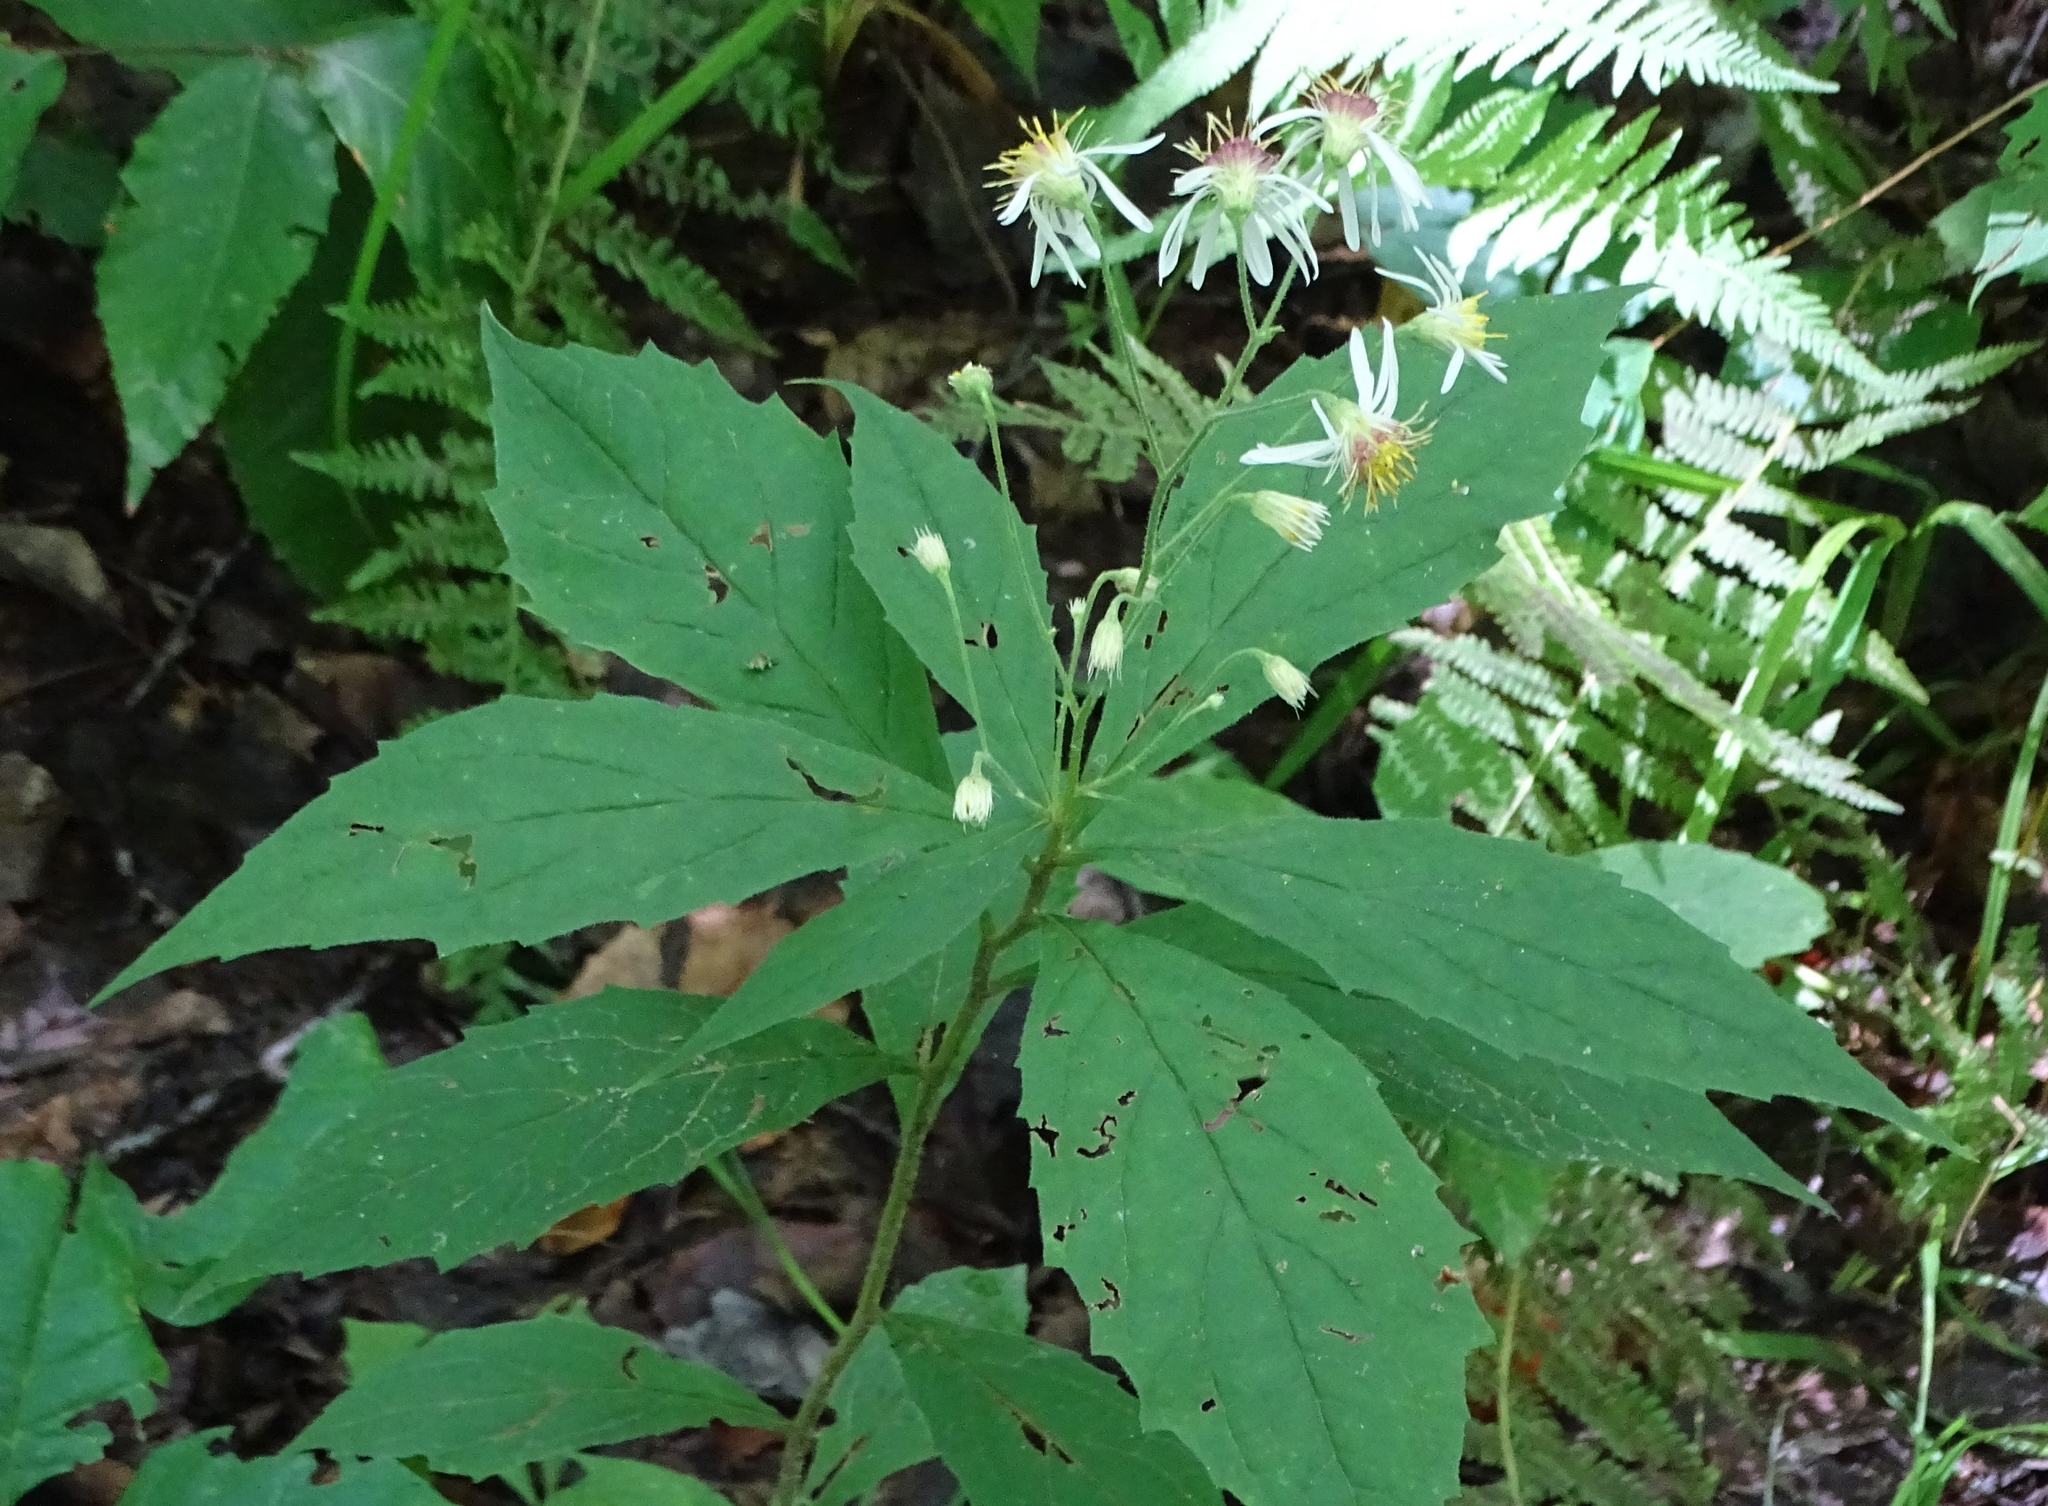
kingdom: Plantae
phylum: Tracheophyta
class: Magnoliopsida
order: Asterales
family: Asteraceae
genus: Oclemena
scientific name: Oclemena acuminata
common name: Mountain aster
